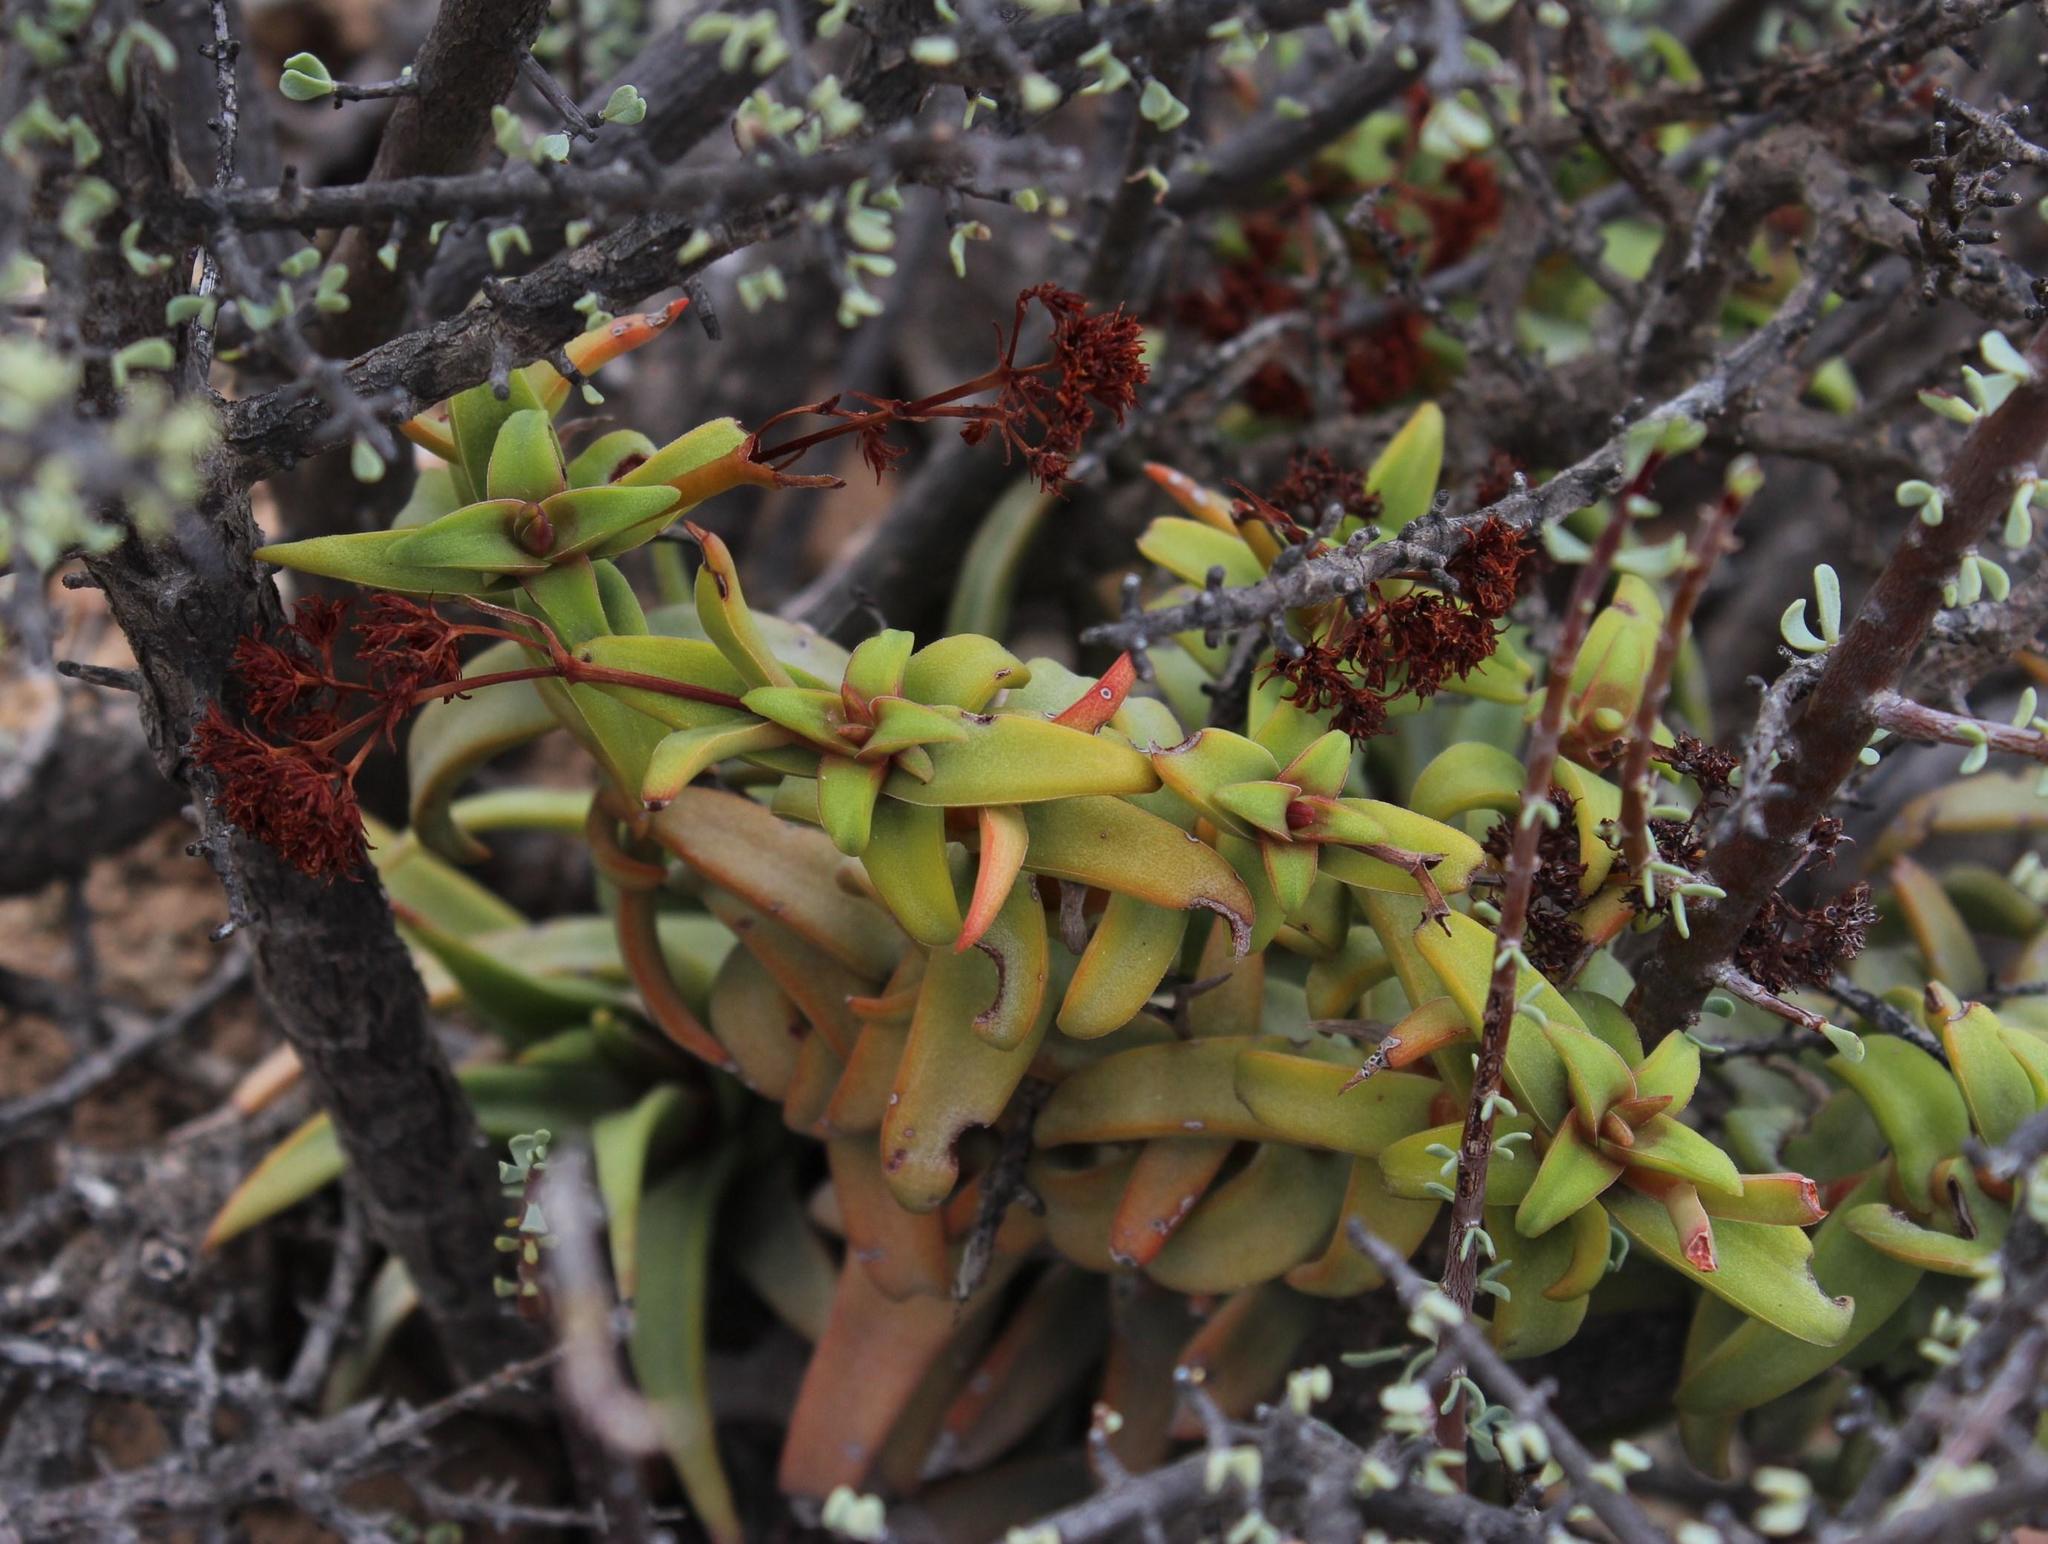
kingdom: Plantae
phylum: Tracheophyta
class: Magnoliopsida
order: Saxifragales
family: Crassulaceae
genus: Crassula
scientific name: Crassula fusca
